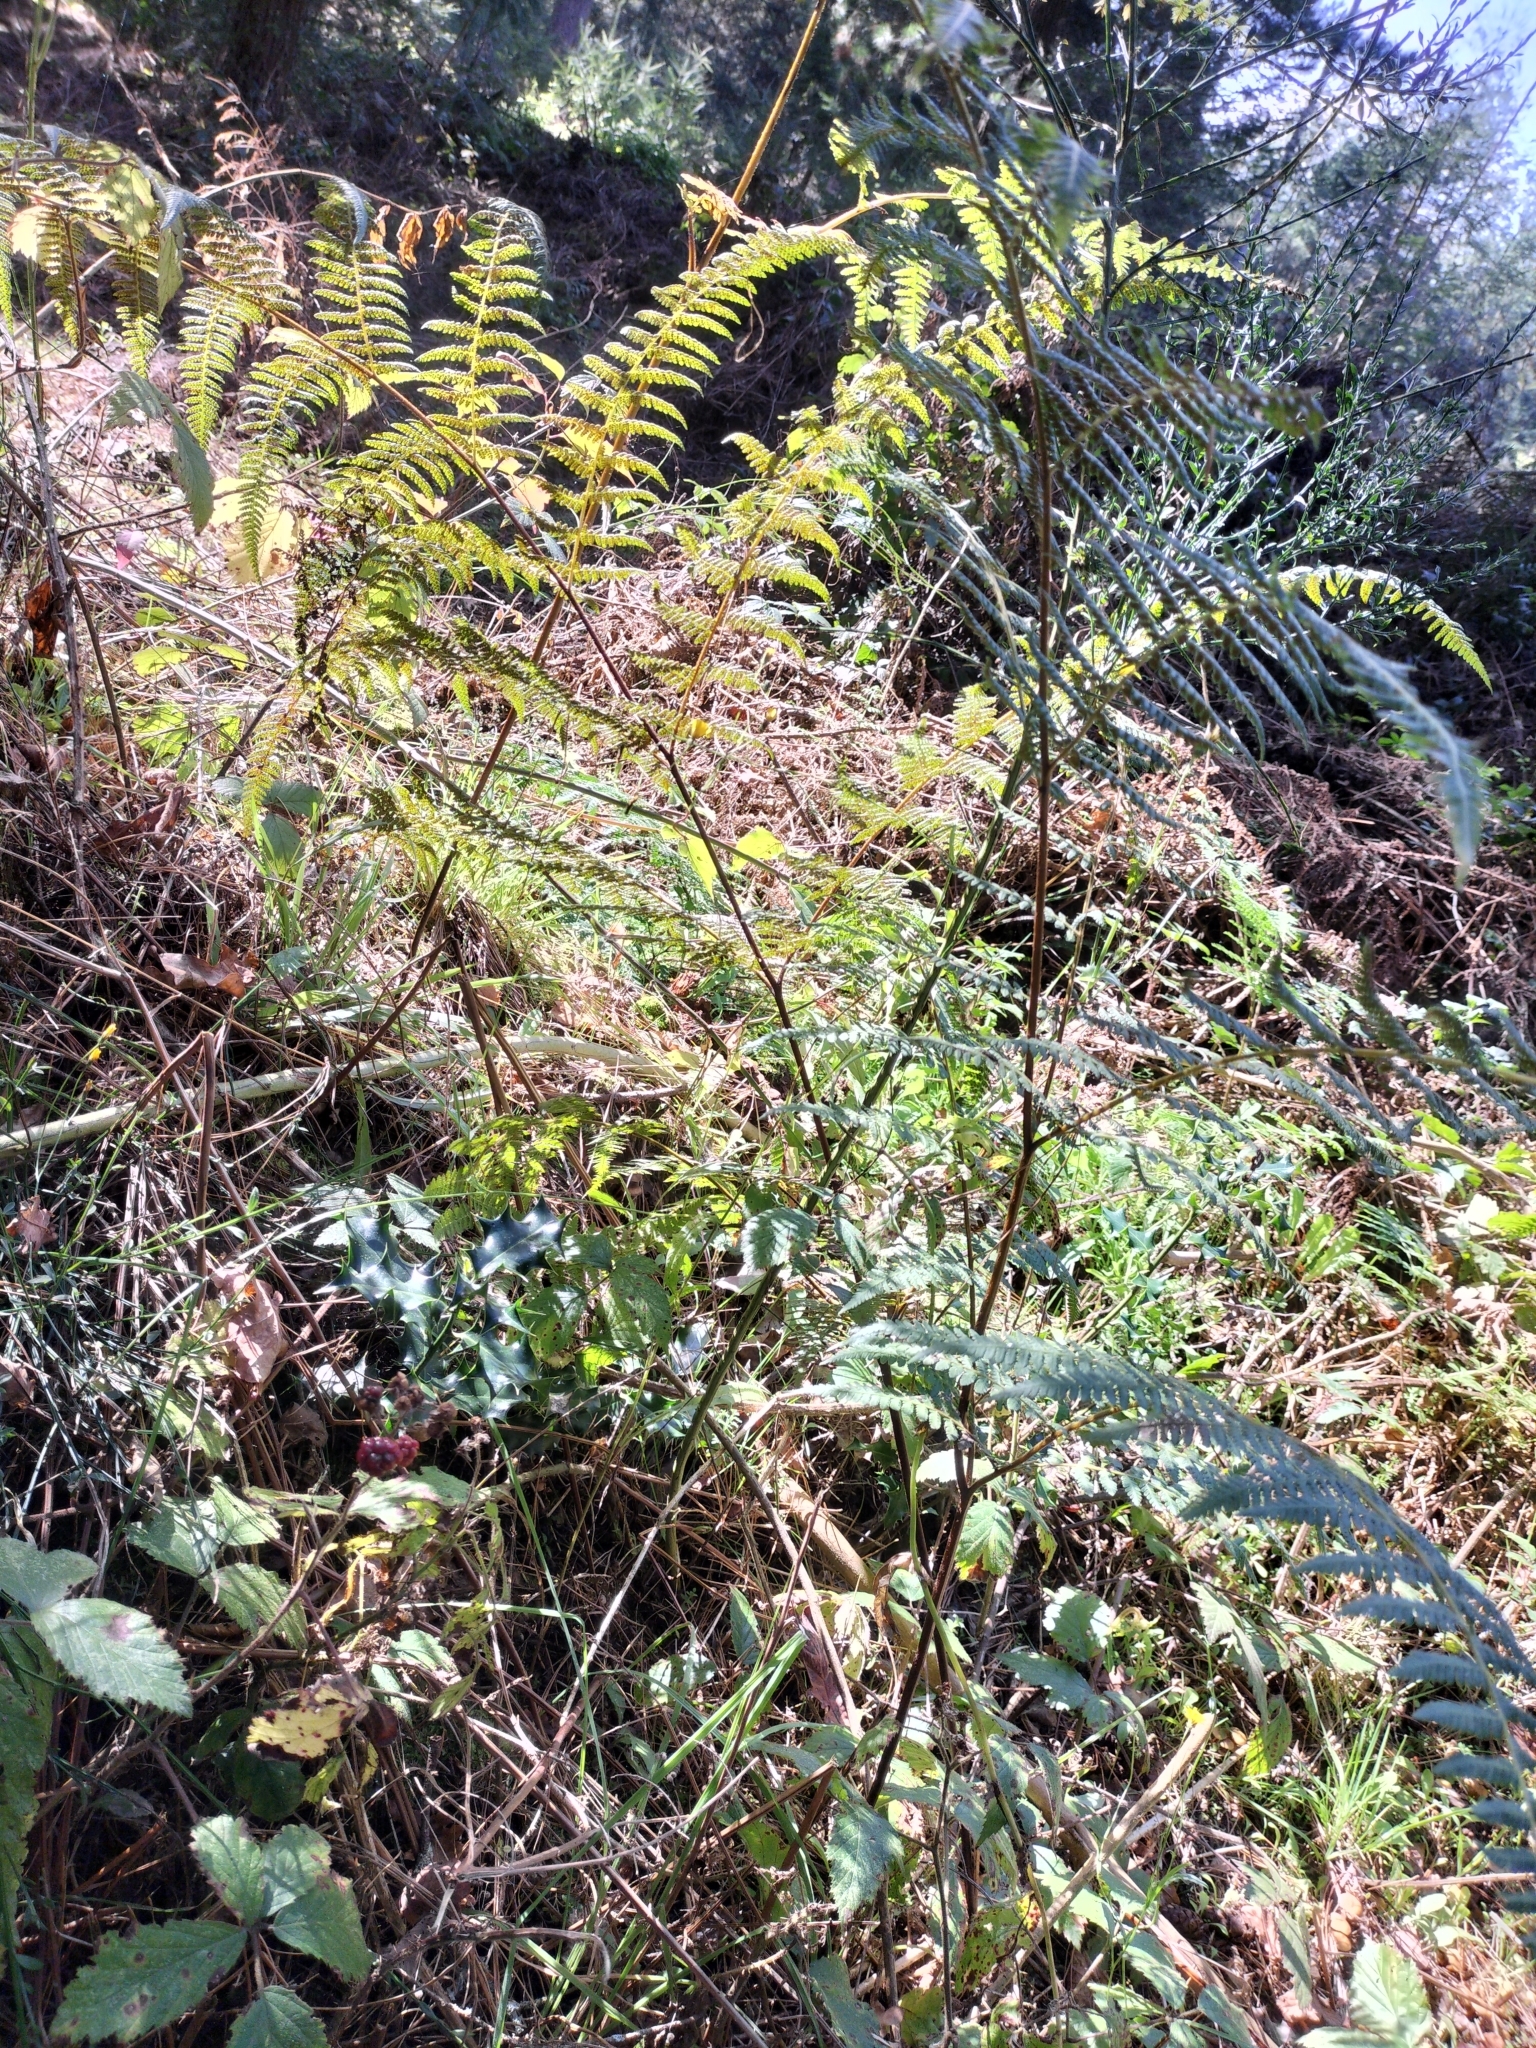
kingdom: Plantae
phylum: Tracheophyta
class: Polypodiopsida
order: Polypodiales
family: Dennstaedtiaceae
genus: Hypolepis
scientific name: Hypolepis ambigua
